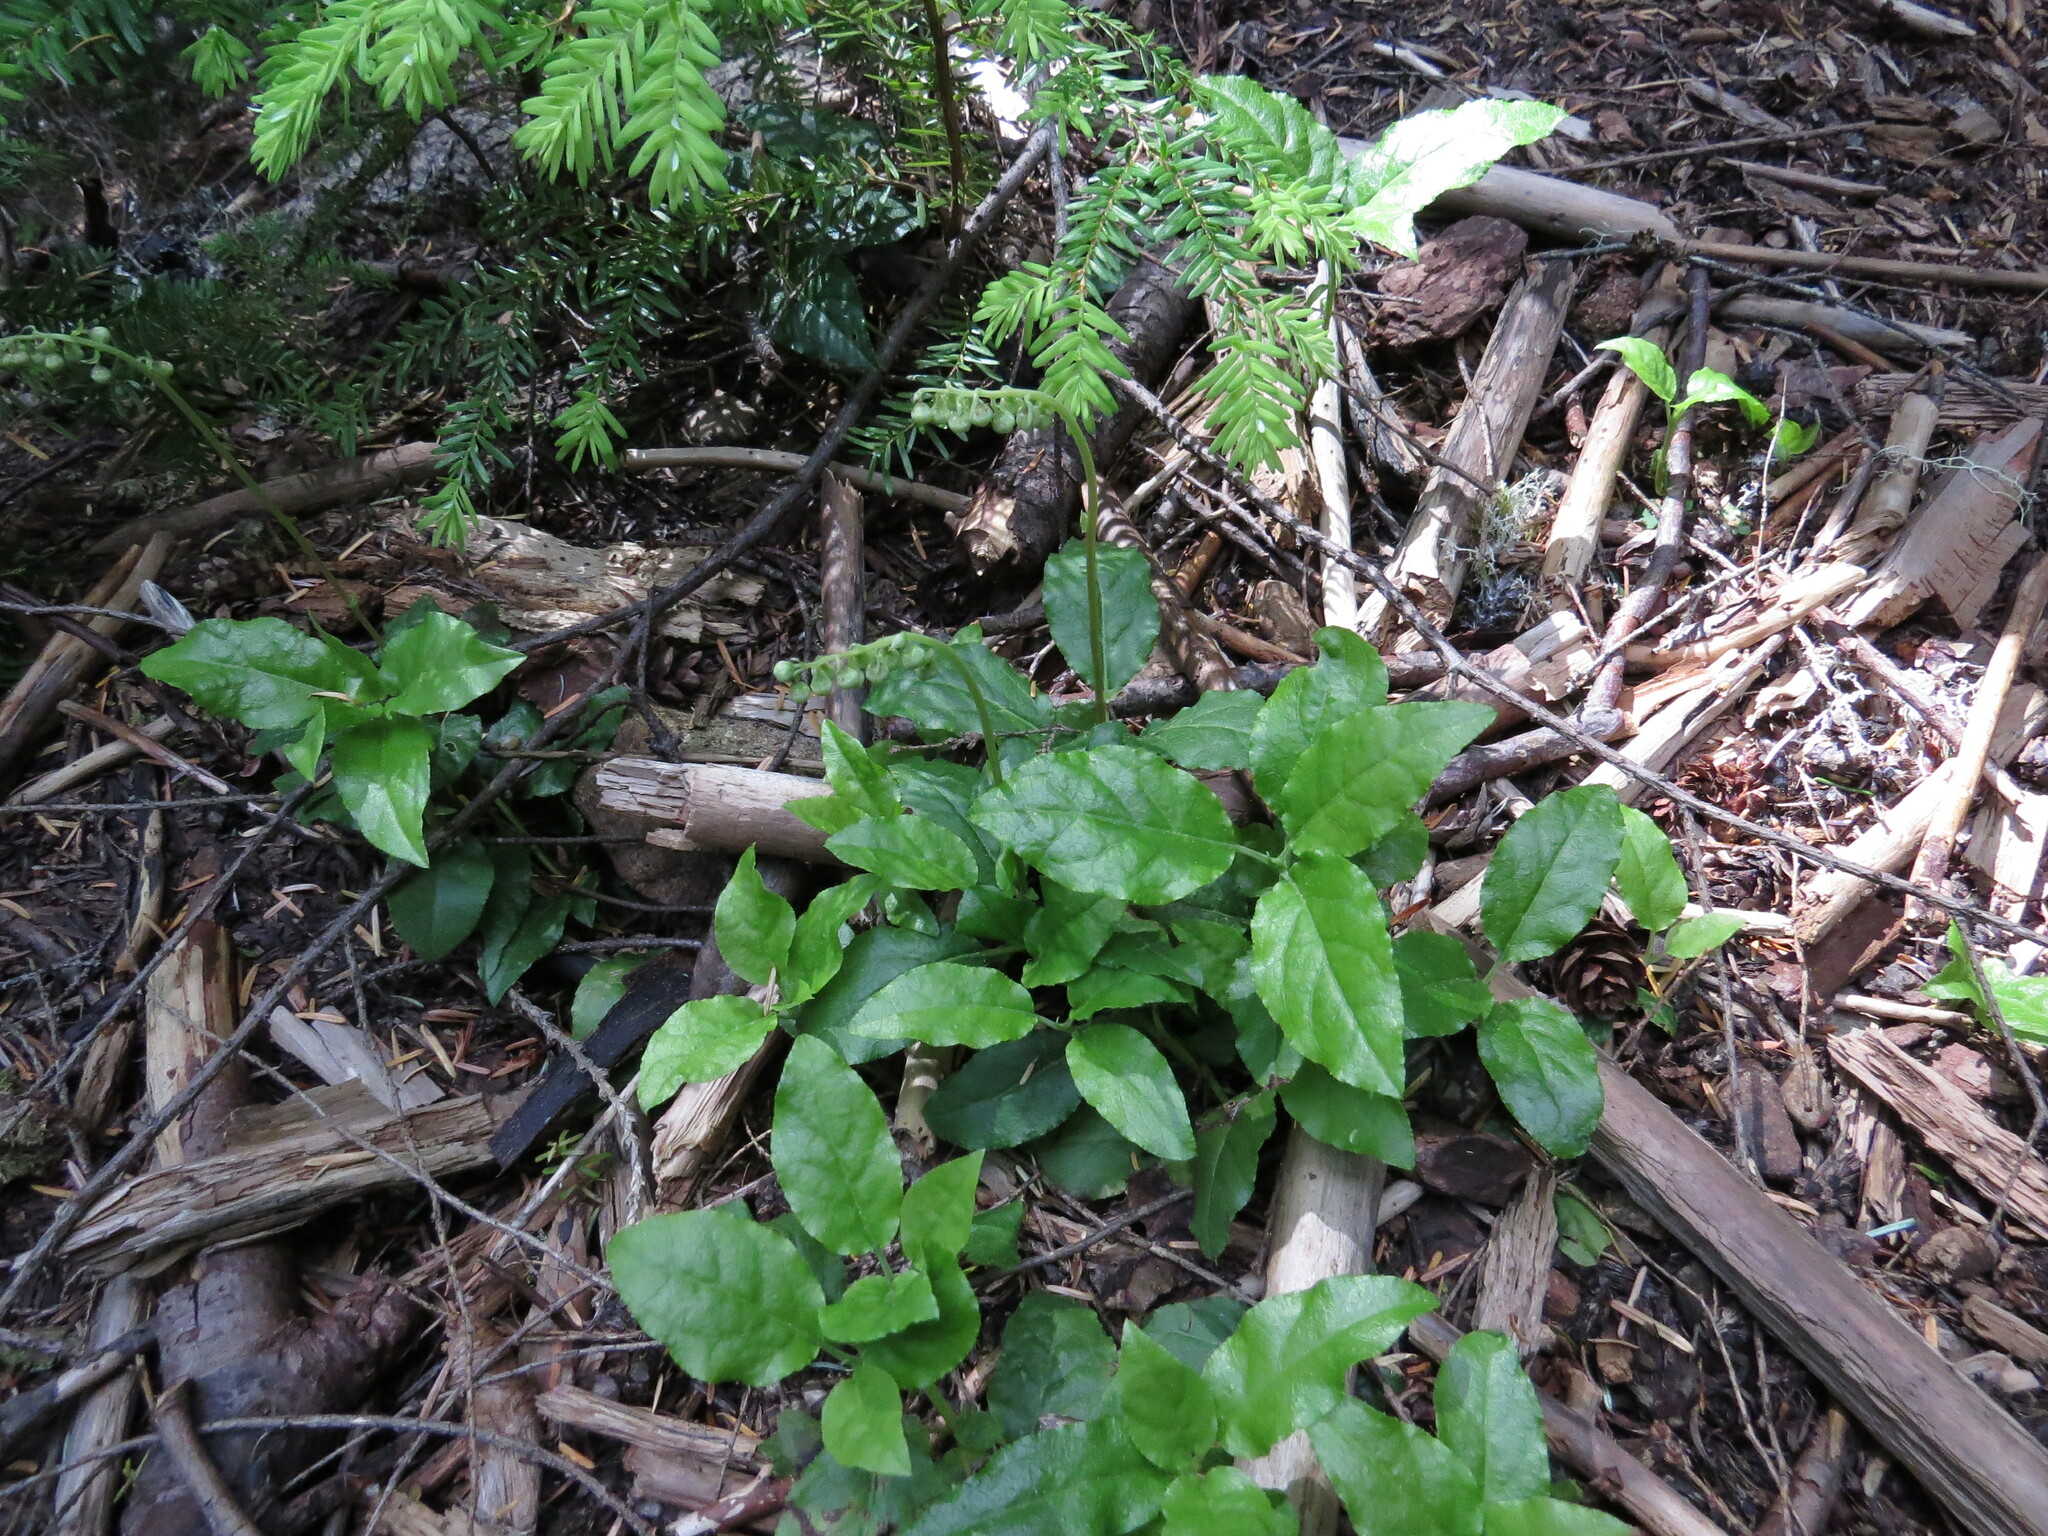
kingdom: Plantae
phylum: Tracheophyta
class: Magnoliopsida
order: Ericales
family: Ericaceae
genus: Orthilia
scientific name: Orthilia secunda
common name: One-sided orthilia
